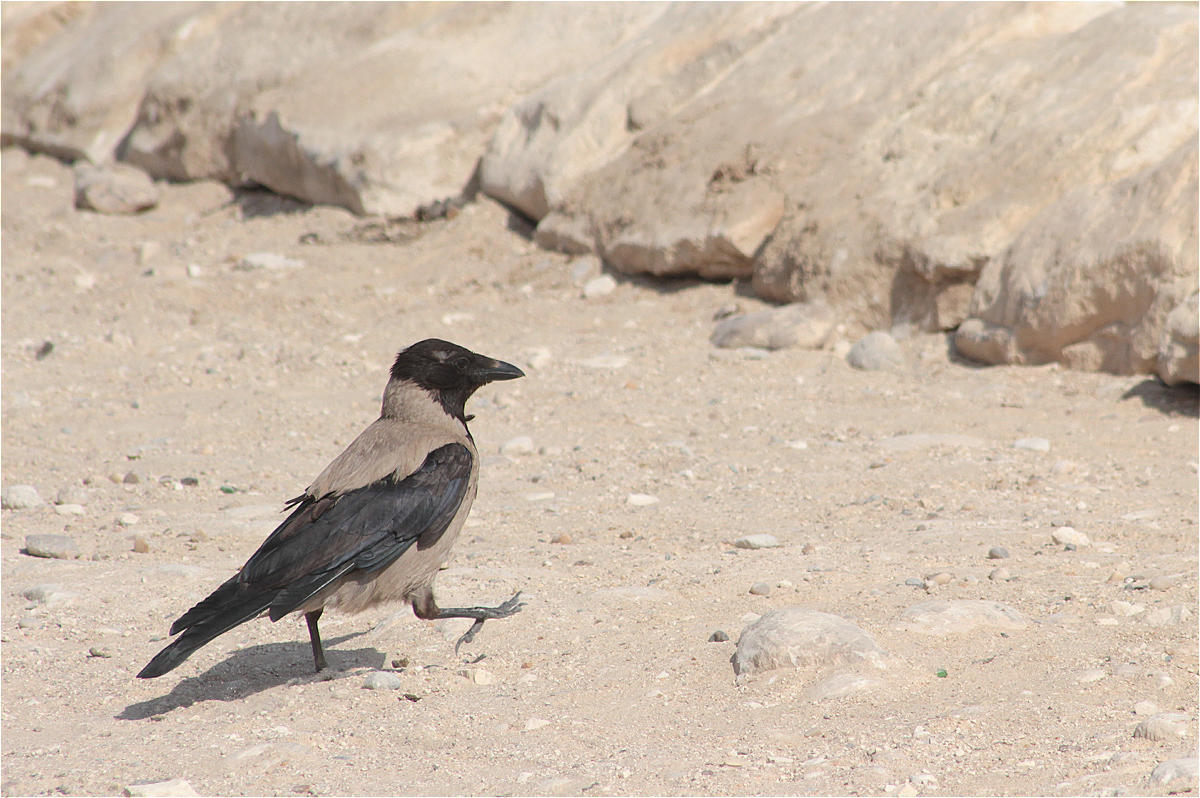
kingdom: Animalia
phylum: Chordata
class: Aves
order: Passeriformes
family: Corvidae
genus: Corvus
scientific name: Corvus cornix
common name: Hooded crow
